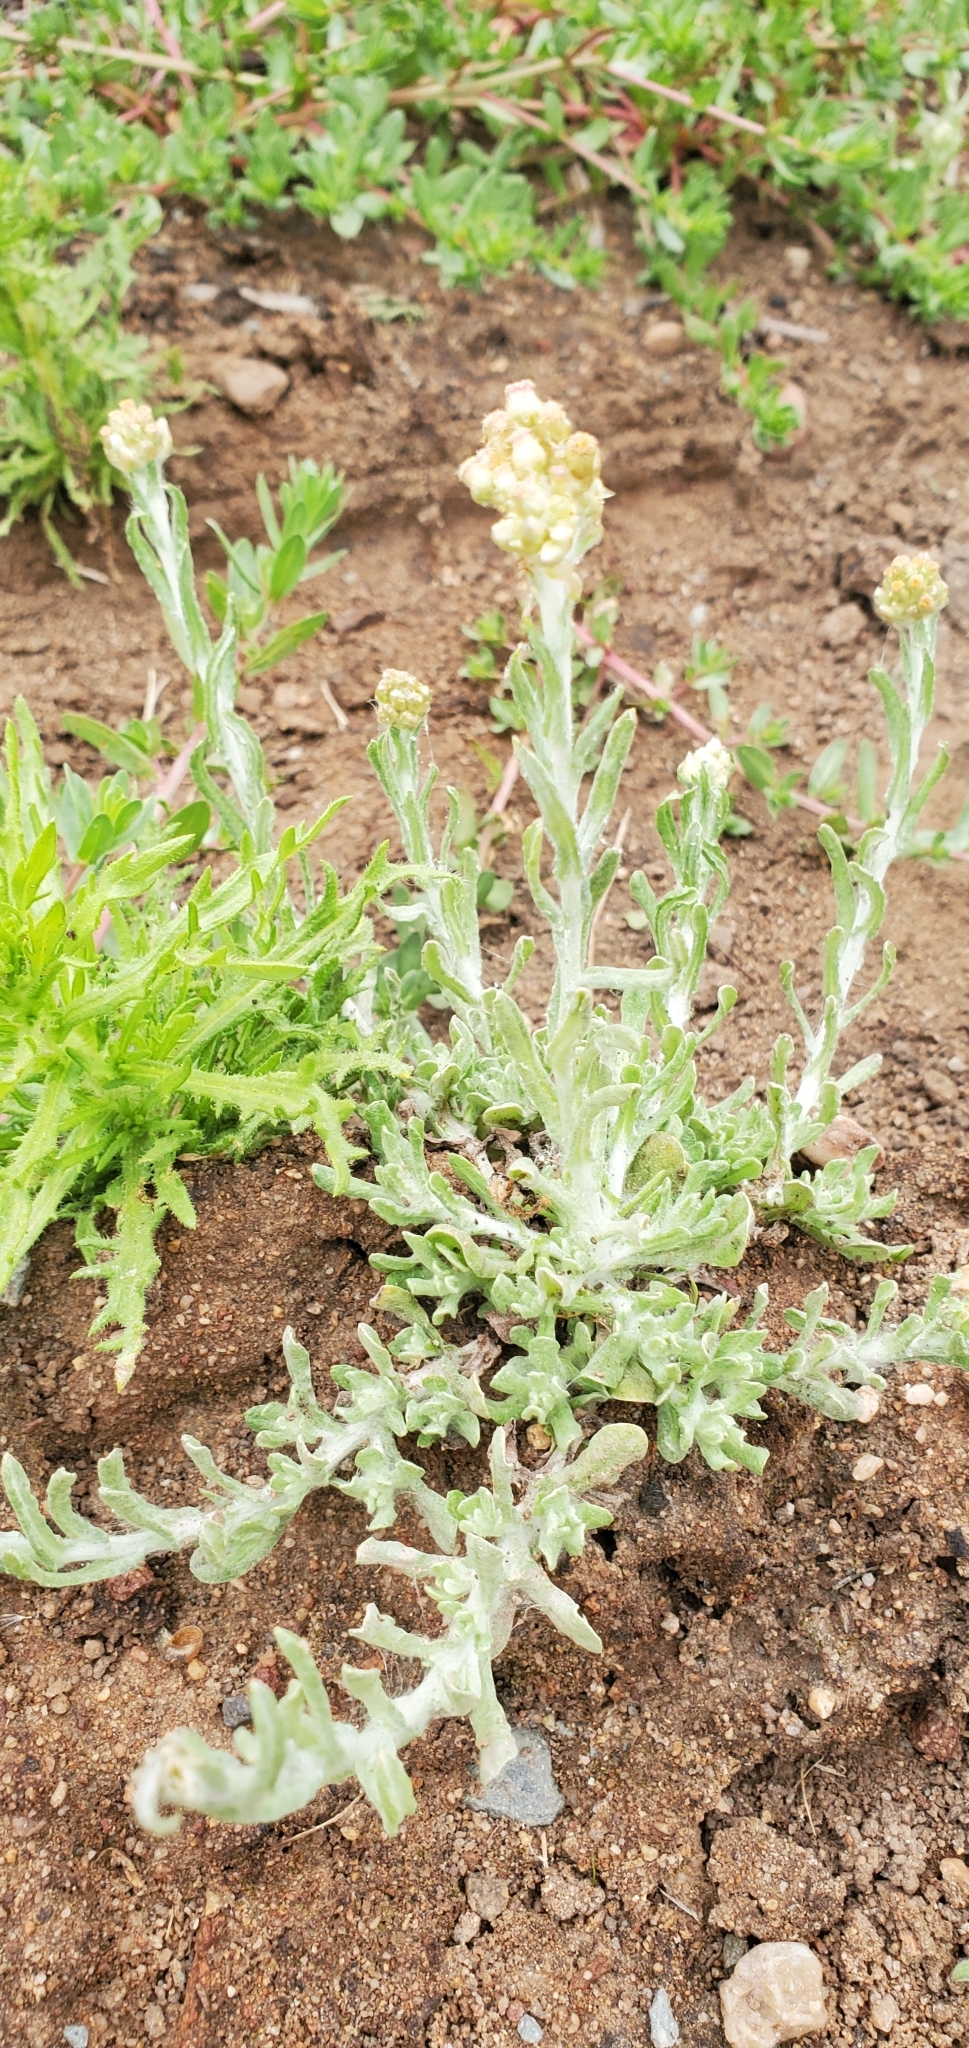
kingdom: Plantae
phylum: Tracheophyta
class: Magnoliopsida
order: Asterales
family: Asteraceae
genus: Helichrysum
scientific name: Helichrysum luteoalbum
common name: Daisy
